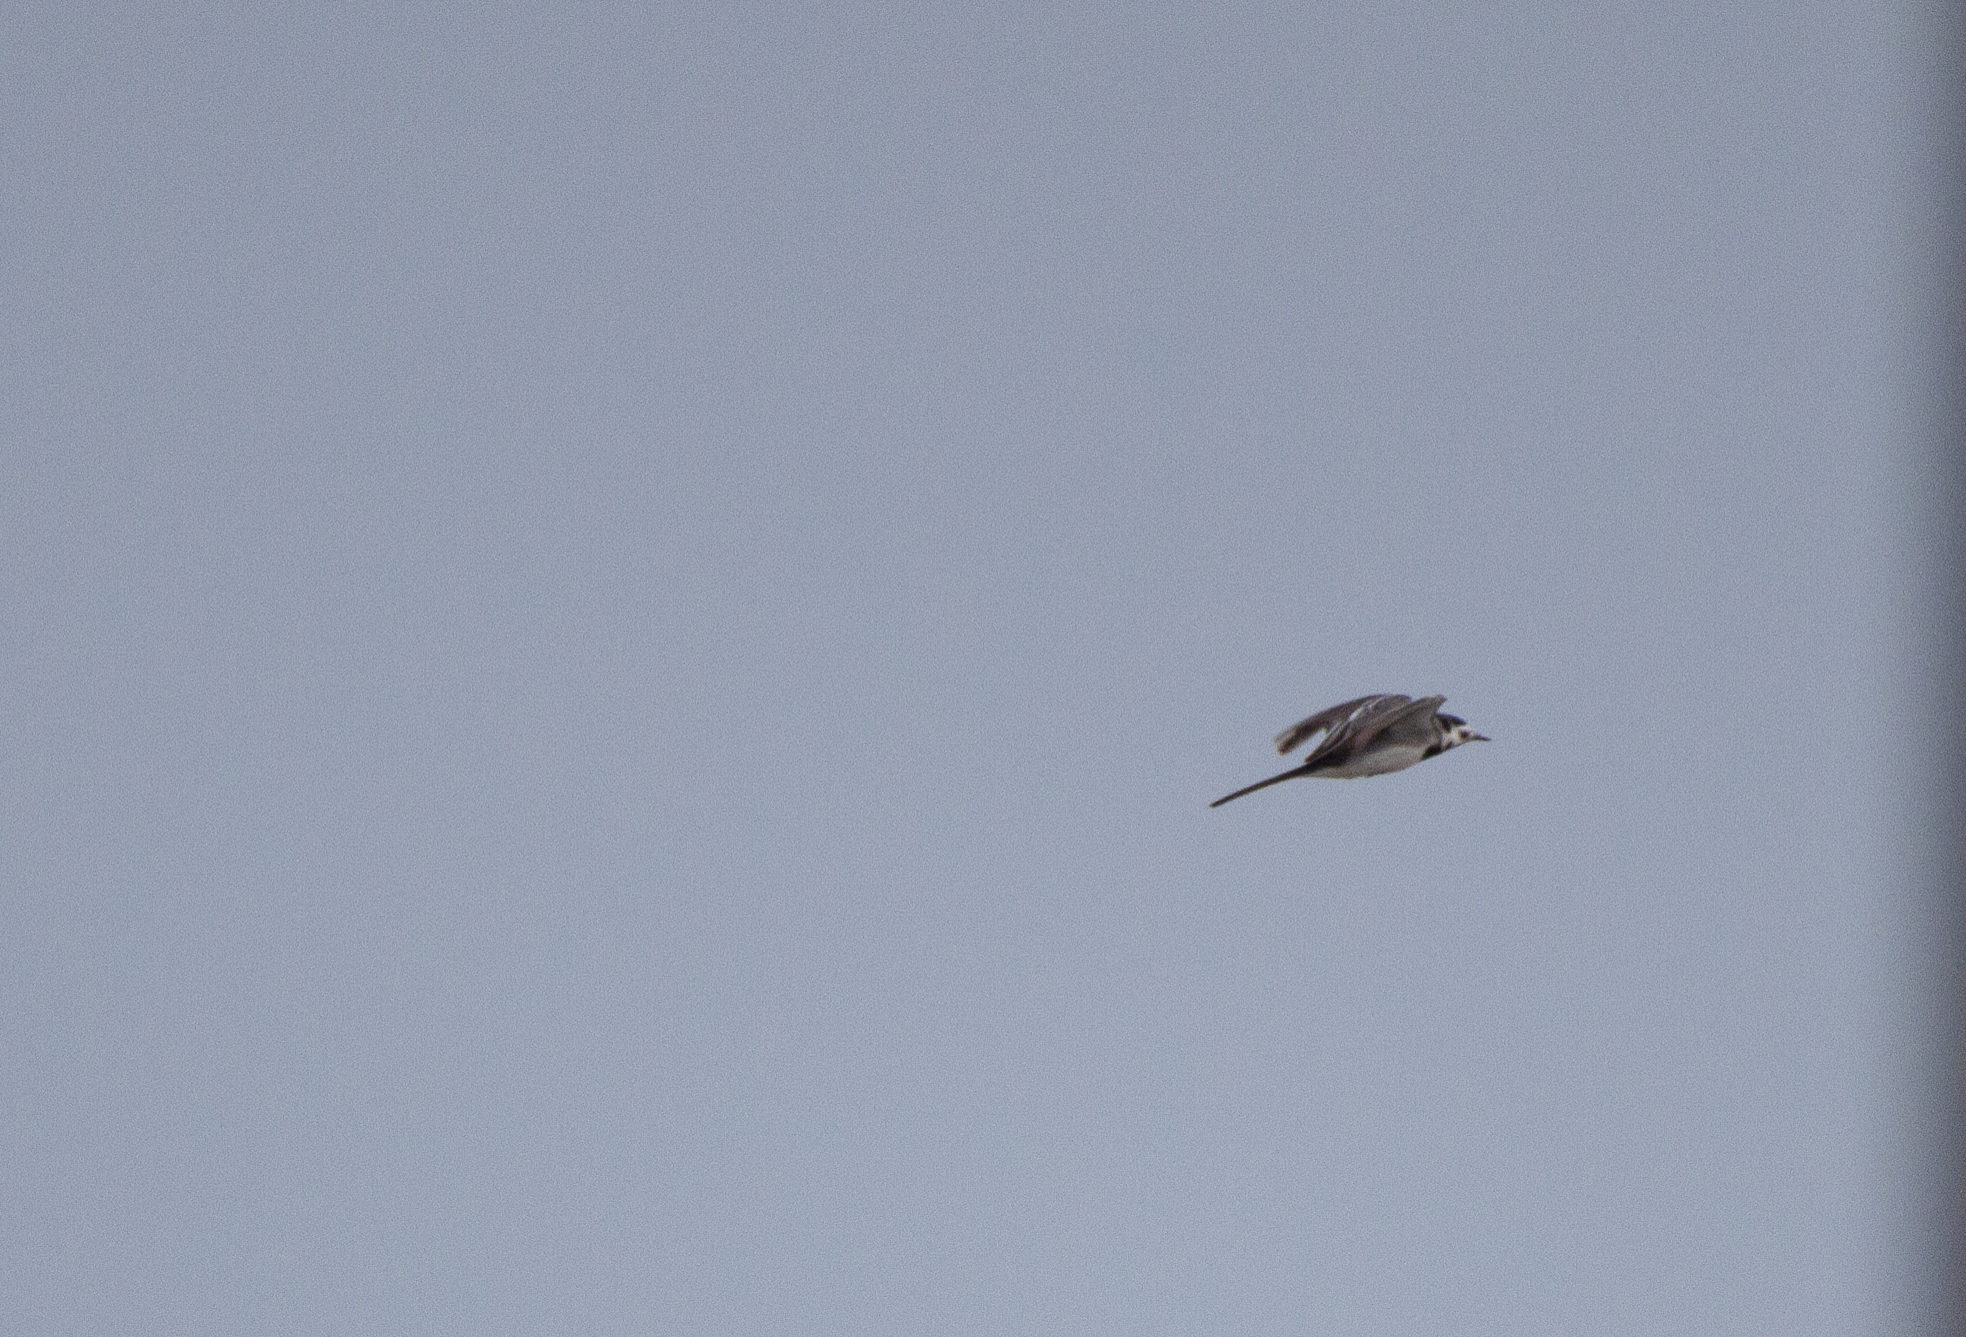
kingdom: Animalia
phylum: Chordata
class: Aves
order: Passeriformes
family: Motacillidae
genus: Motacilla
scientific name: Motacilla alba
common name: White wagtail
